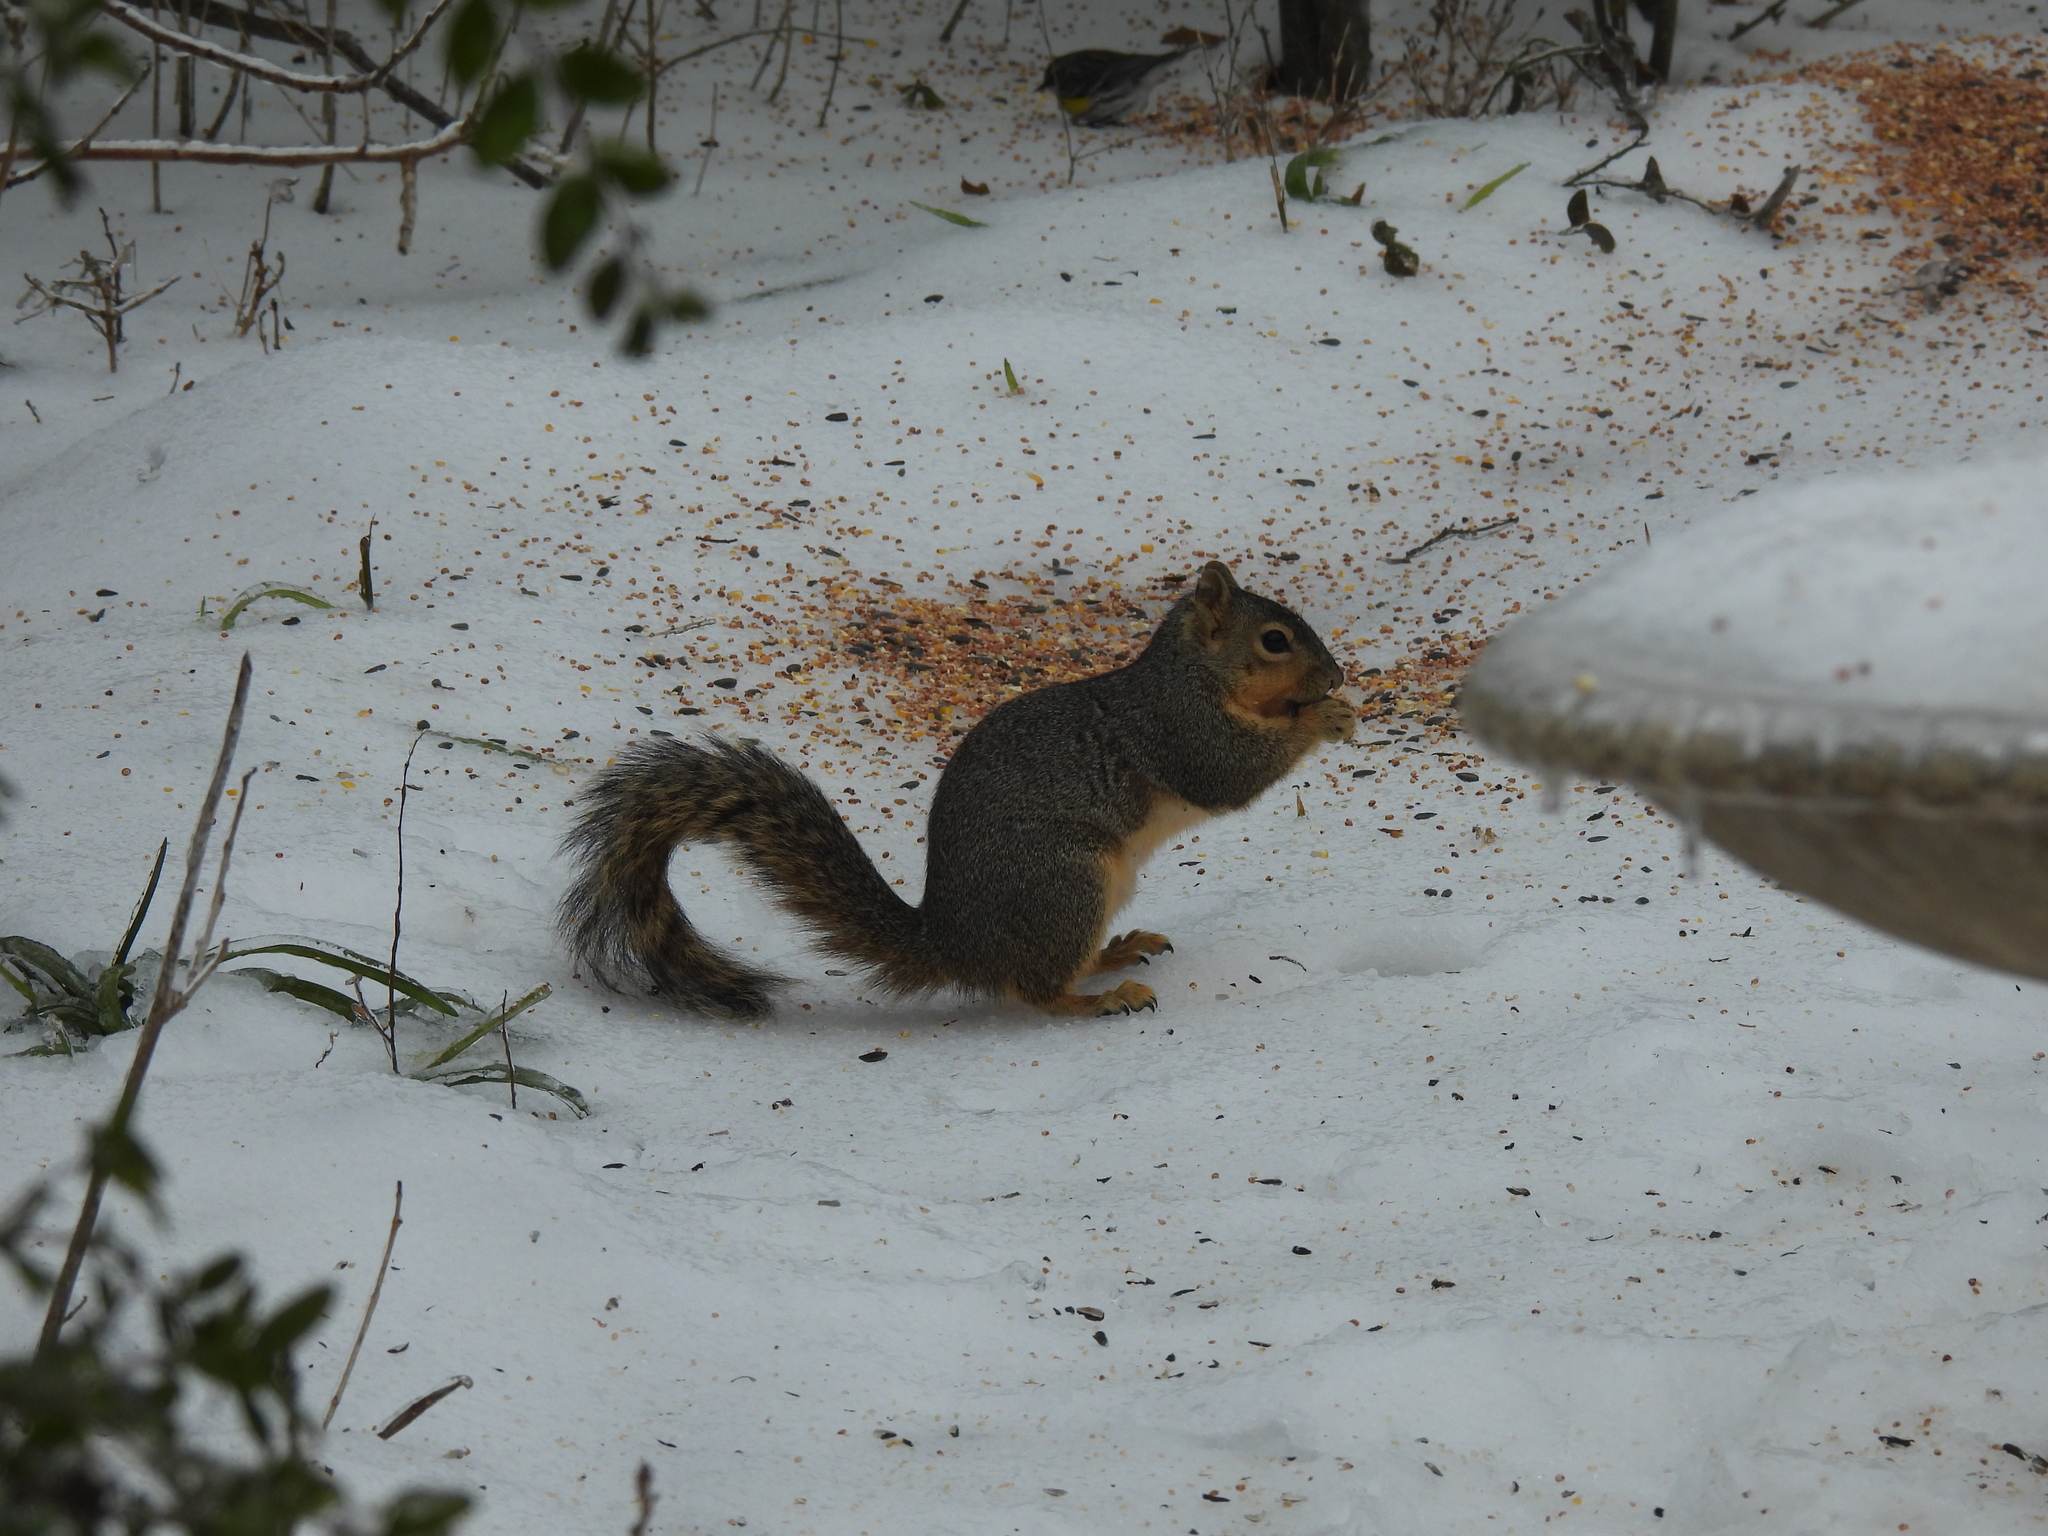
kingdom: Animalia
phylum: Chordata
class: Mammalia
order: Rodentia
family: Sciuridae
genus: Sciurus
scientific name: Sciurus niger
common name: Fox squirrel
